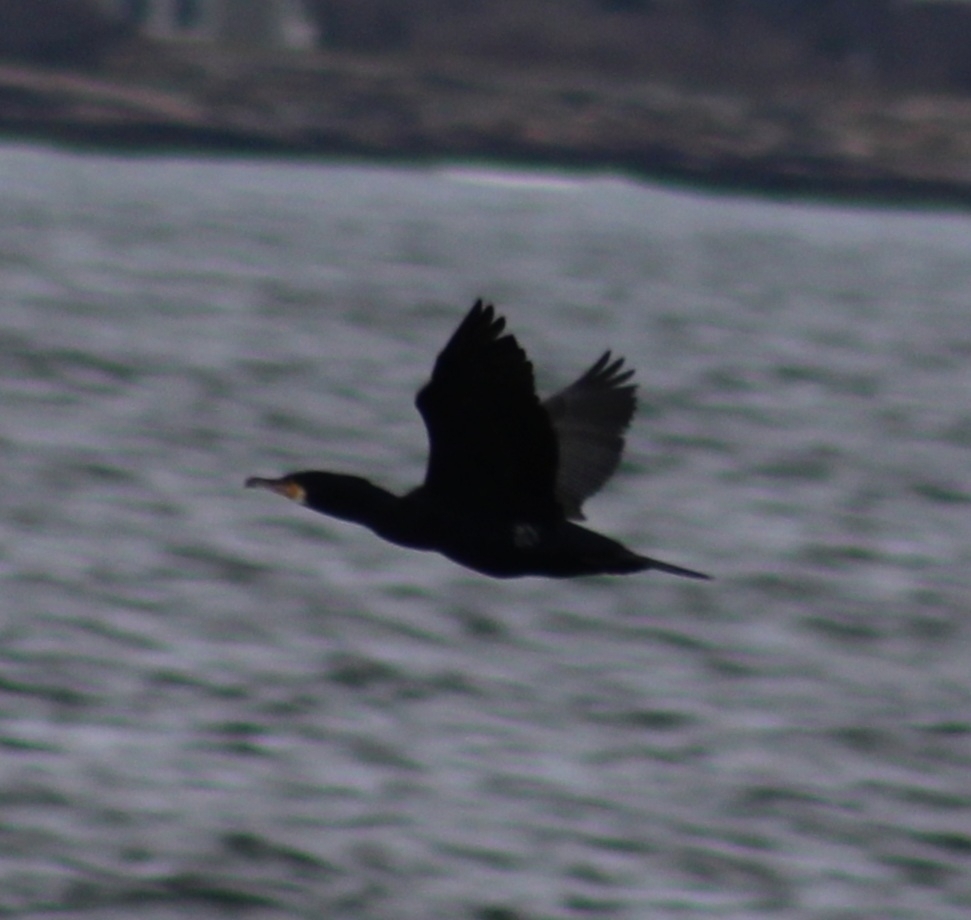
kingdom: Animalia
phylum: Chordata
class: Aves
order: Suliformes
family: Phalacrocoracidae
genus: Phalacrocorax
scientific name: Phalacrocorax carbo
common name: Great cormorant
